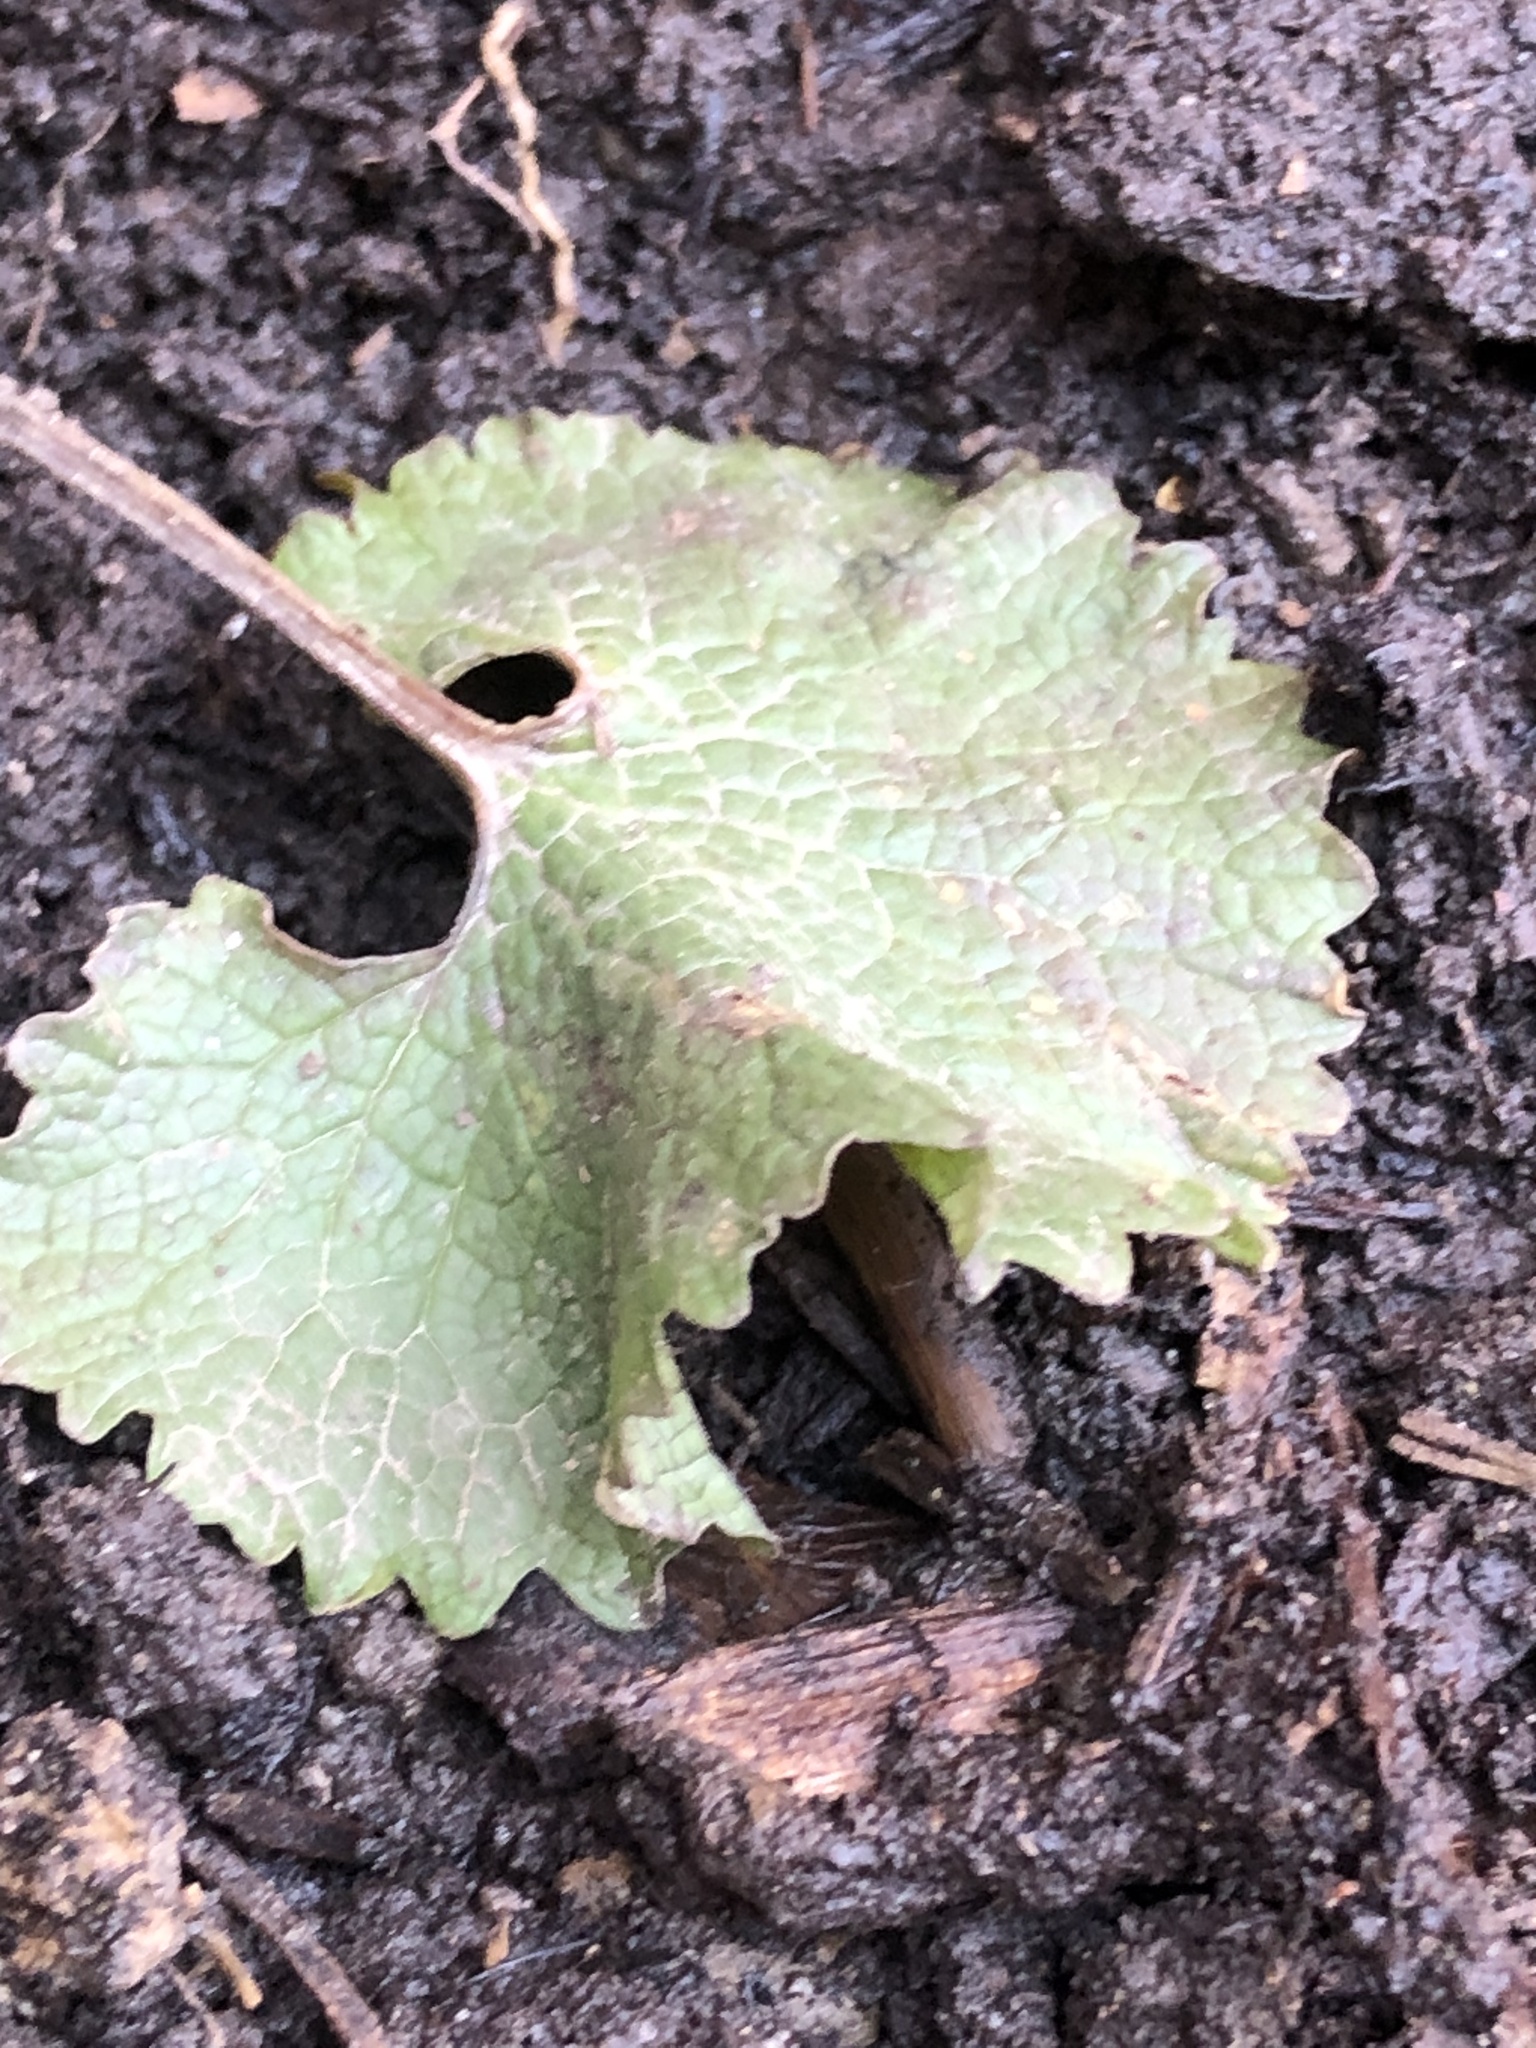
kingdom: Plantae
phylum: Tracheophyta
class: Magnoliopsida
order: Brassicales
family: Brassicaceae
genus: Alliaria
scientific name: Alliaria petiolata
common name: Garlic mustard
